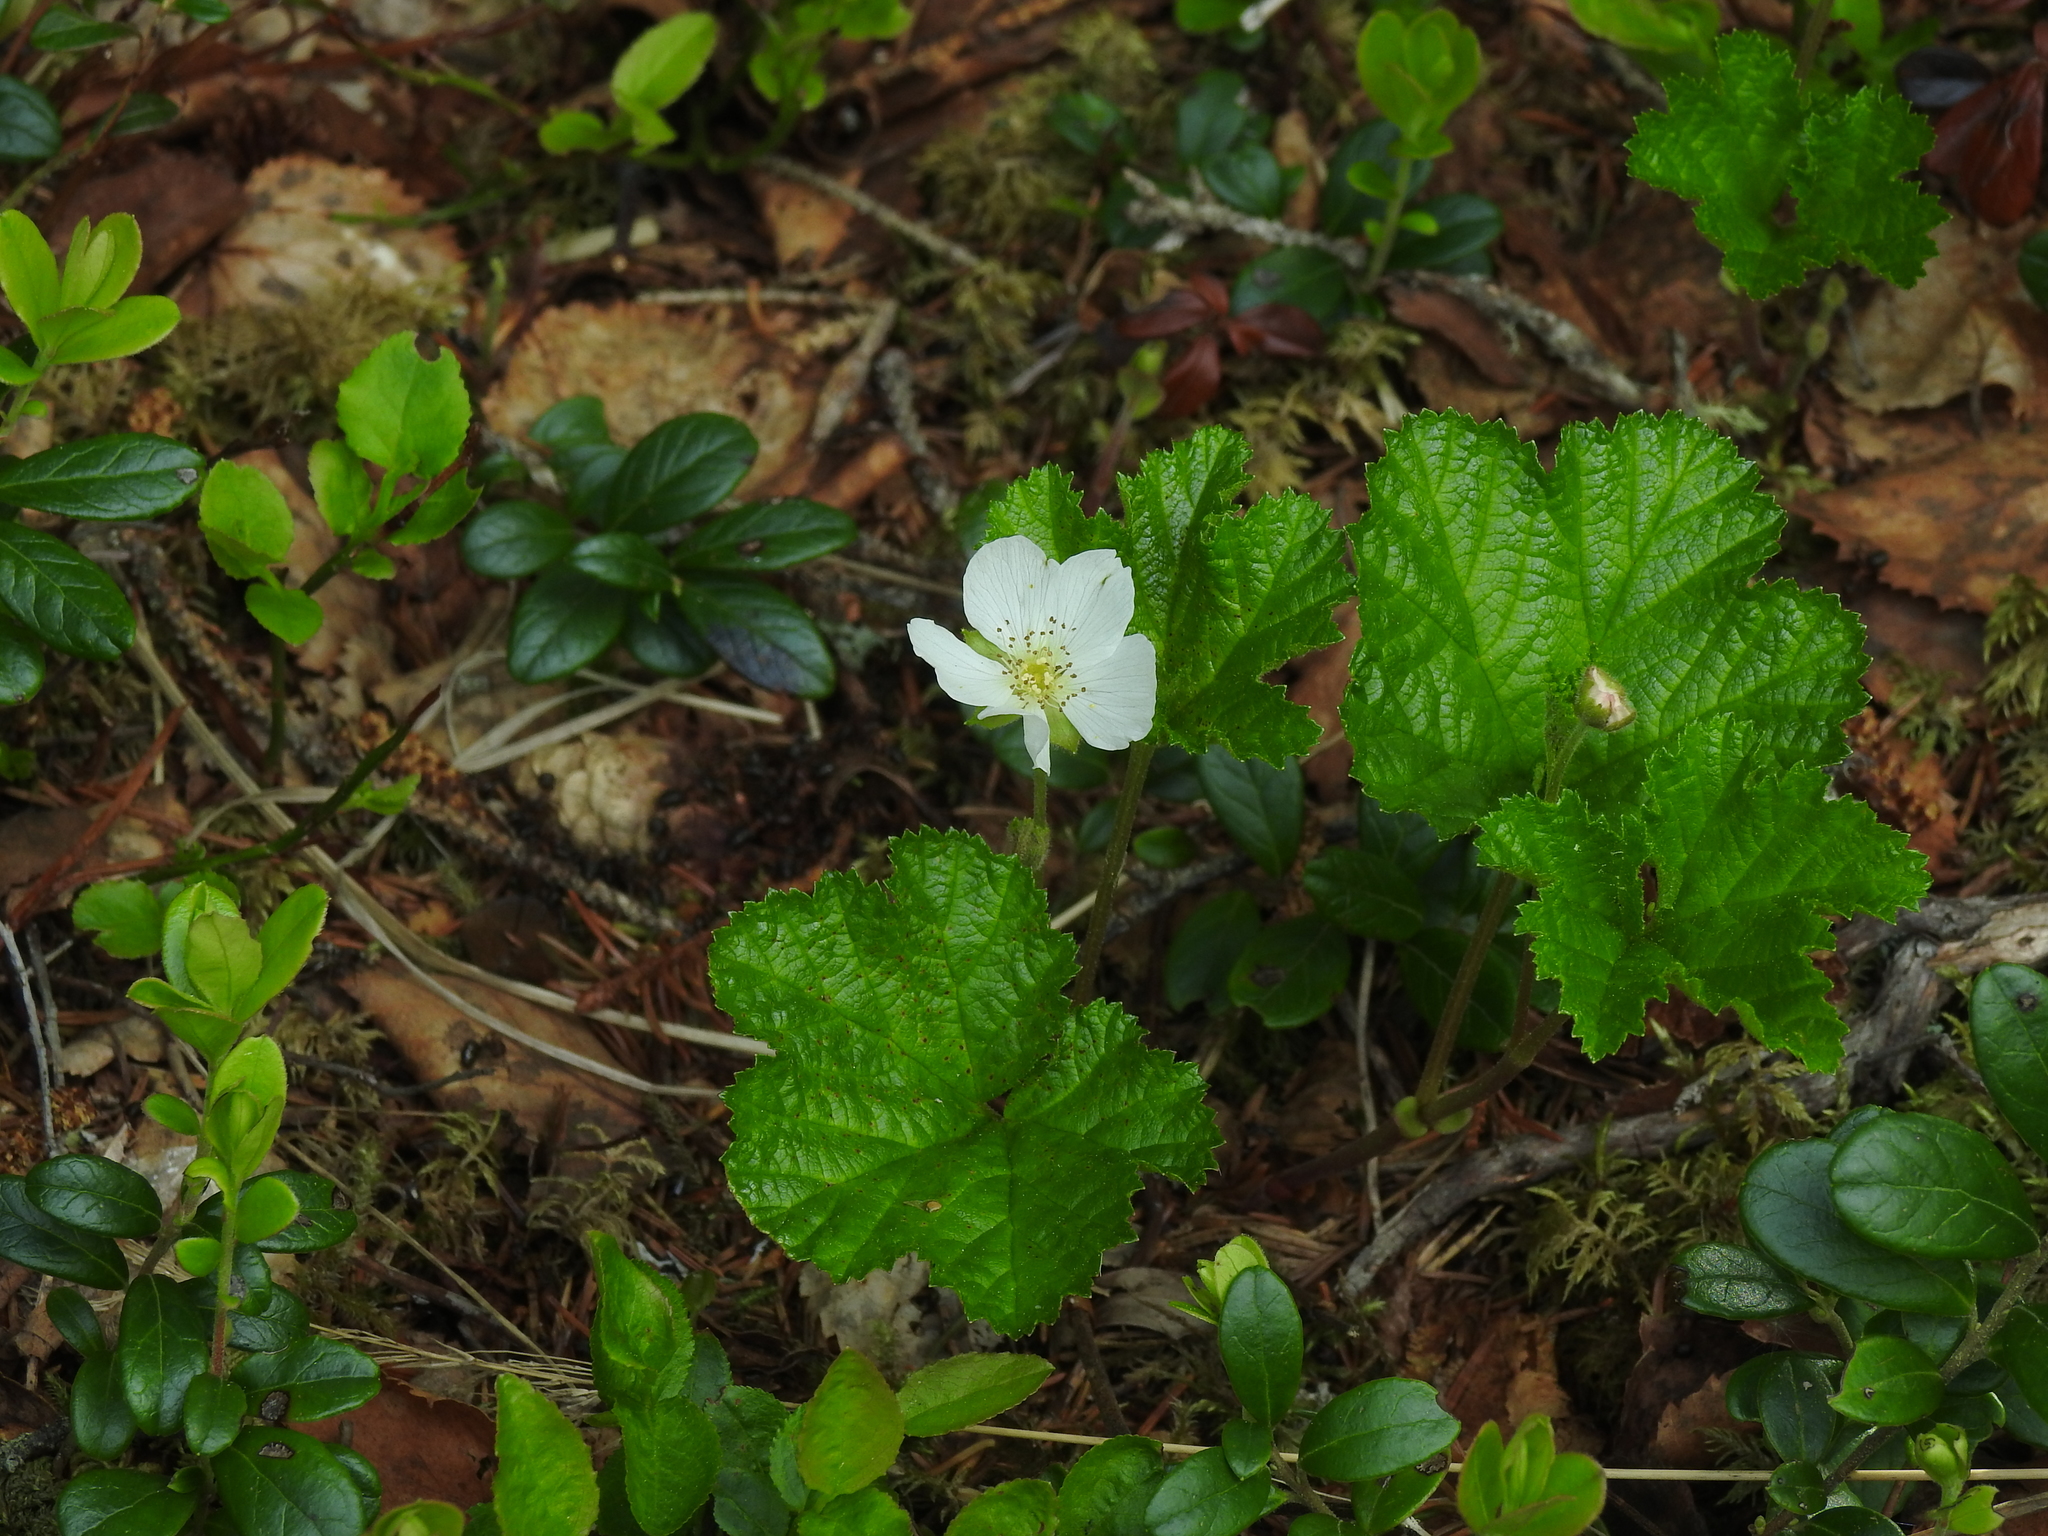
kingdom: Plantae
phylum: Tracheophyta
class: Magnoliopsida
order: Rosales
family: Rosaceae
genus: Rubus
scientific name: Rubus chamaemorus
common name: Cloudberry
